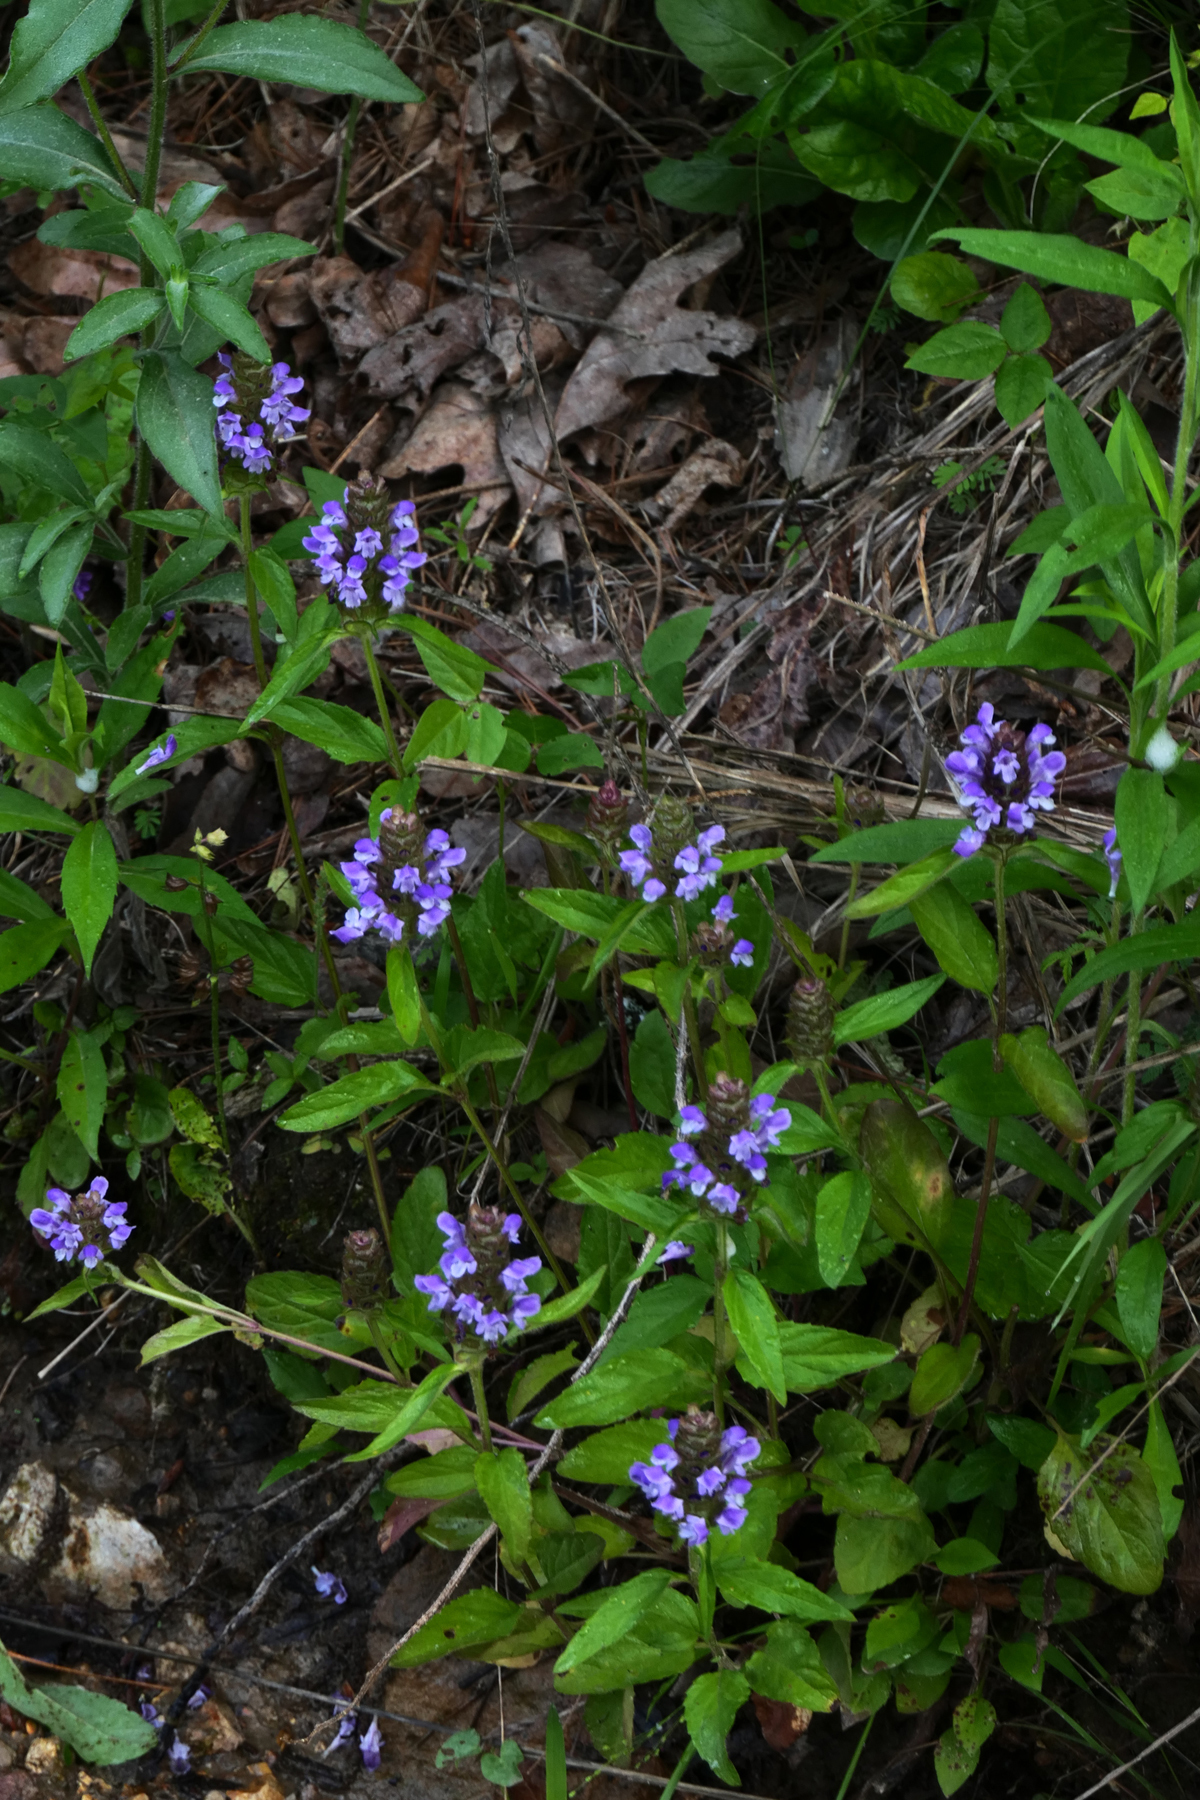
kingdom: Plantae
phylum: Tracheophyta
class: Magnoliopsida
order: Lamiales
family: Lamiaceae
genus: Prunella
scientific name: Prunella vulgaris
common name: Heal-all
